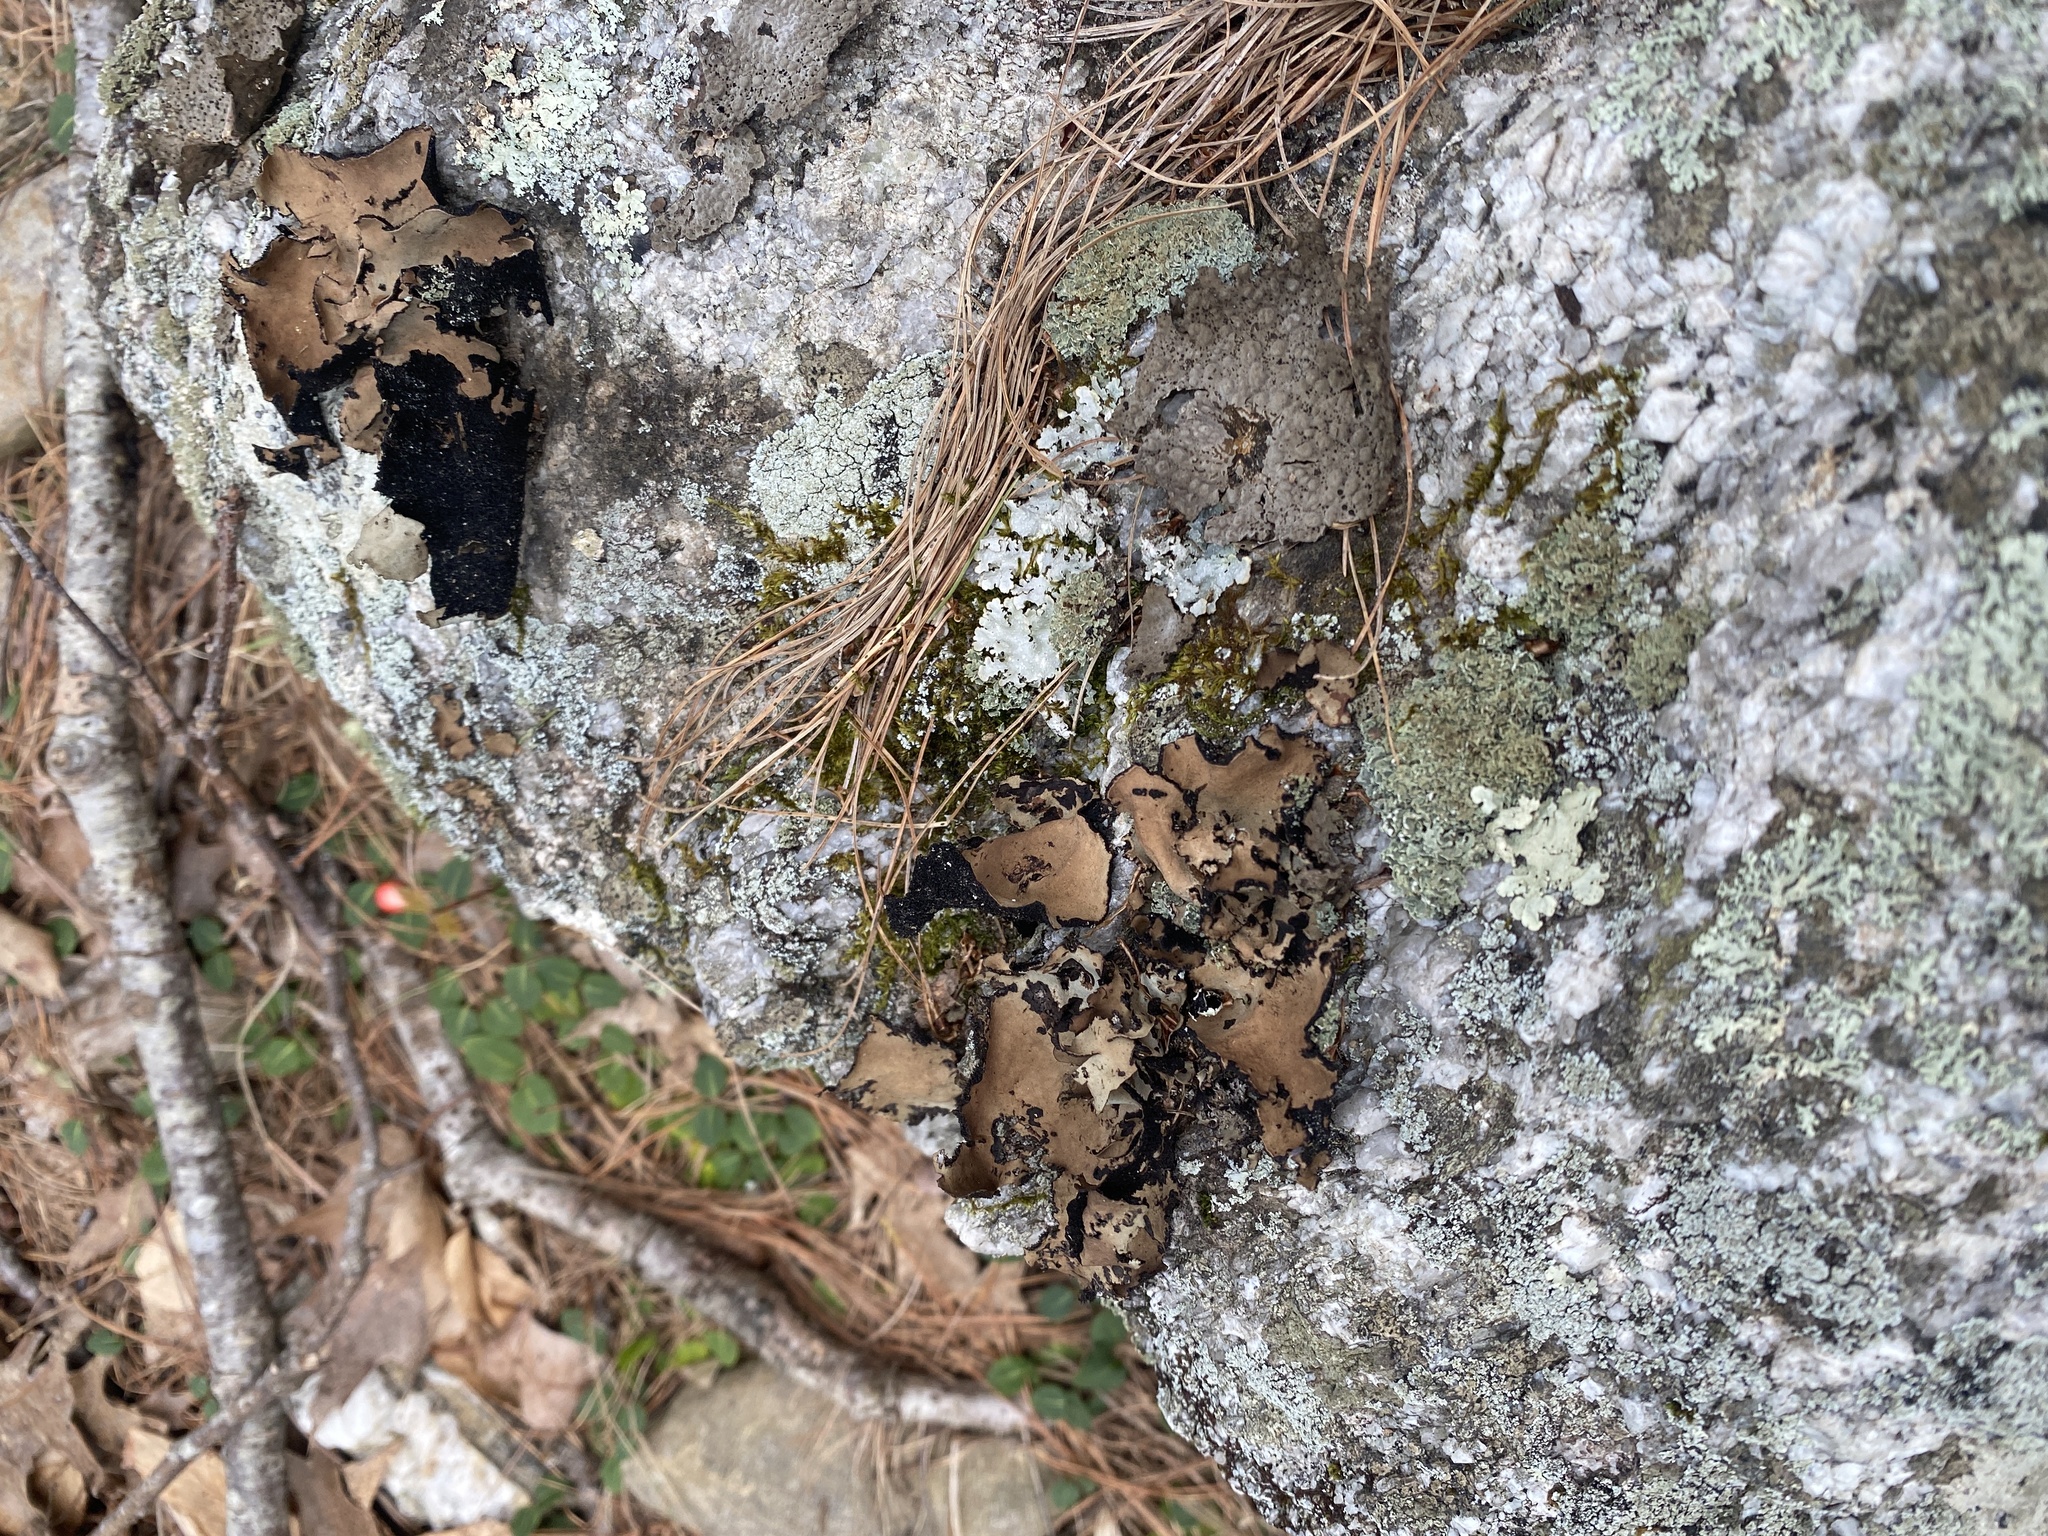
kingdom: Fungi
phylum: Ascomycota
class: Lecanoromycetes
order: Umbilicariales
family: Umbilicariaceae
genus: Umbilicaria
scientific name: Umbilicaria mammulata
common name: Smooth rock tripe
